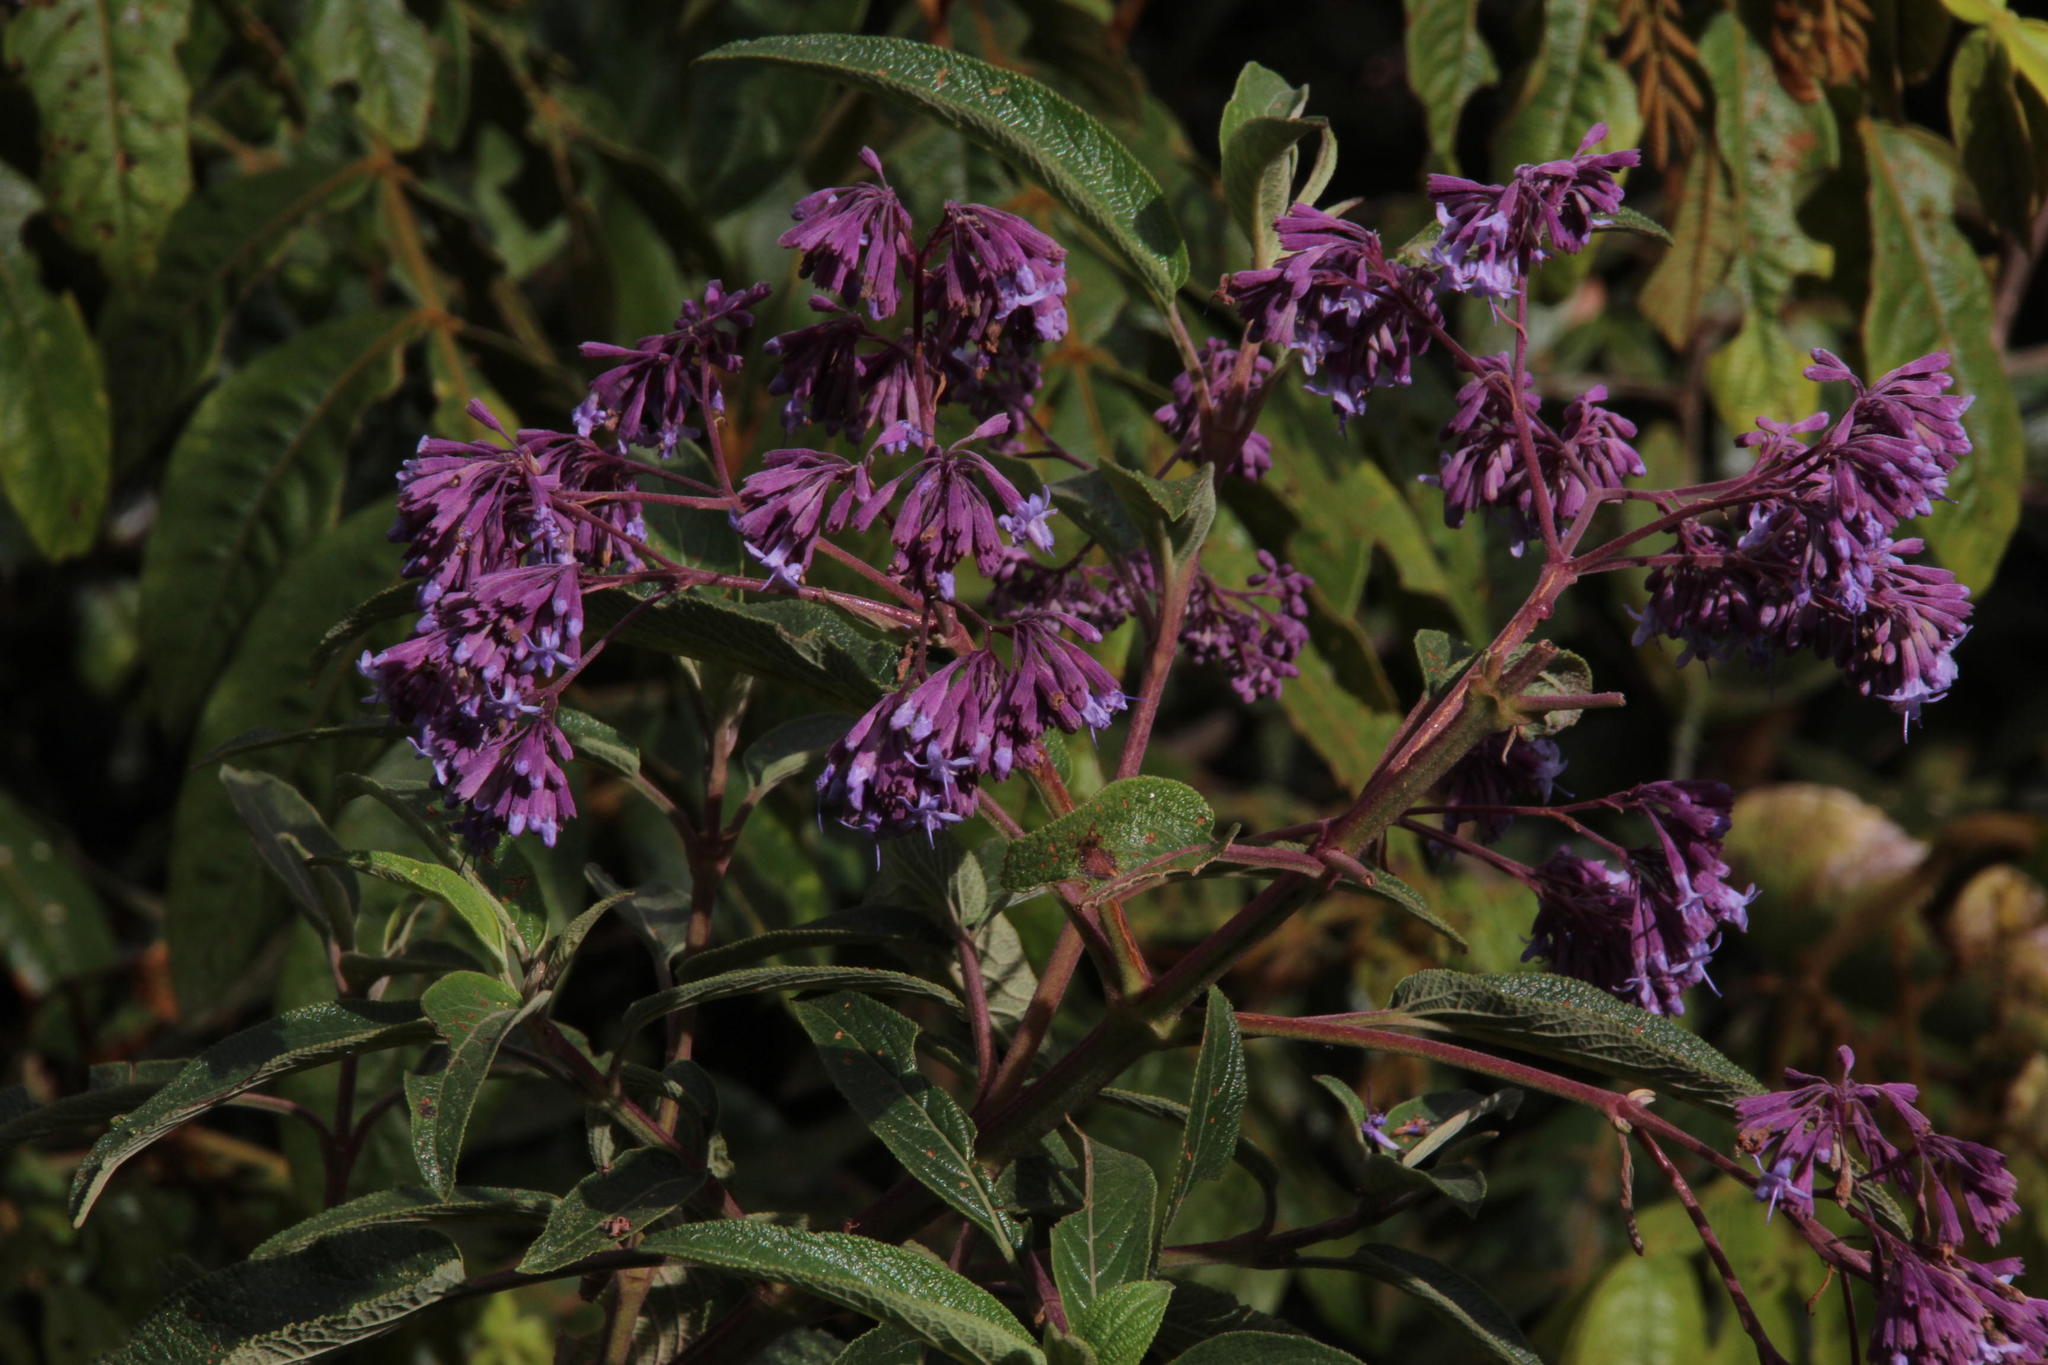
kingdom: Plantae
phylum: Tracheophyta
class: Magnoliopsida
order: Lamiales
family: Lamiaceae
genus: Condea
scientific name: Condea tafallae
